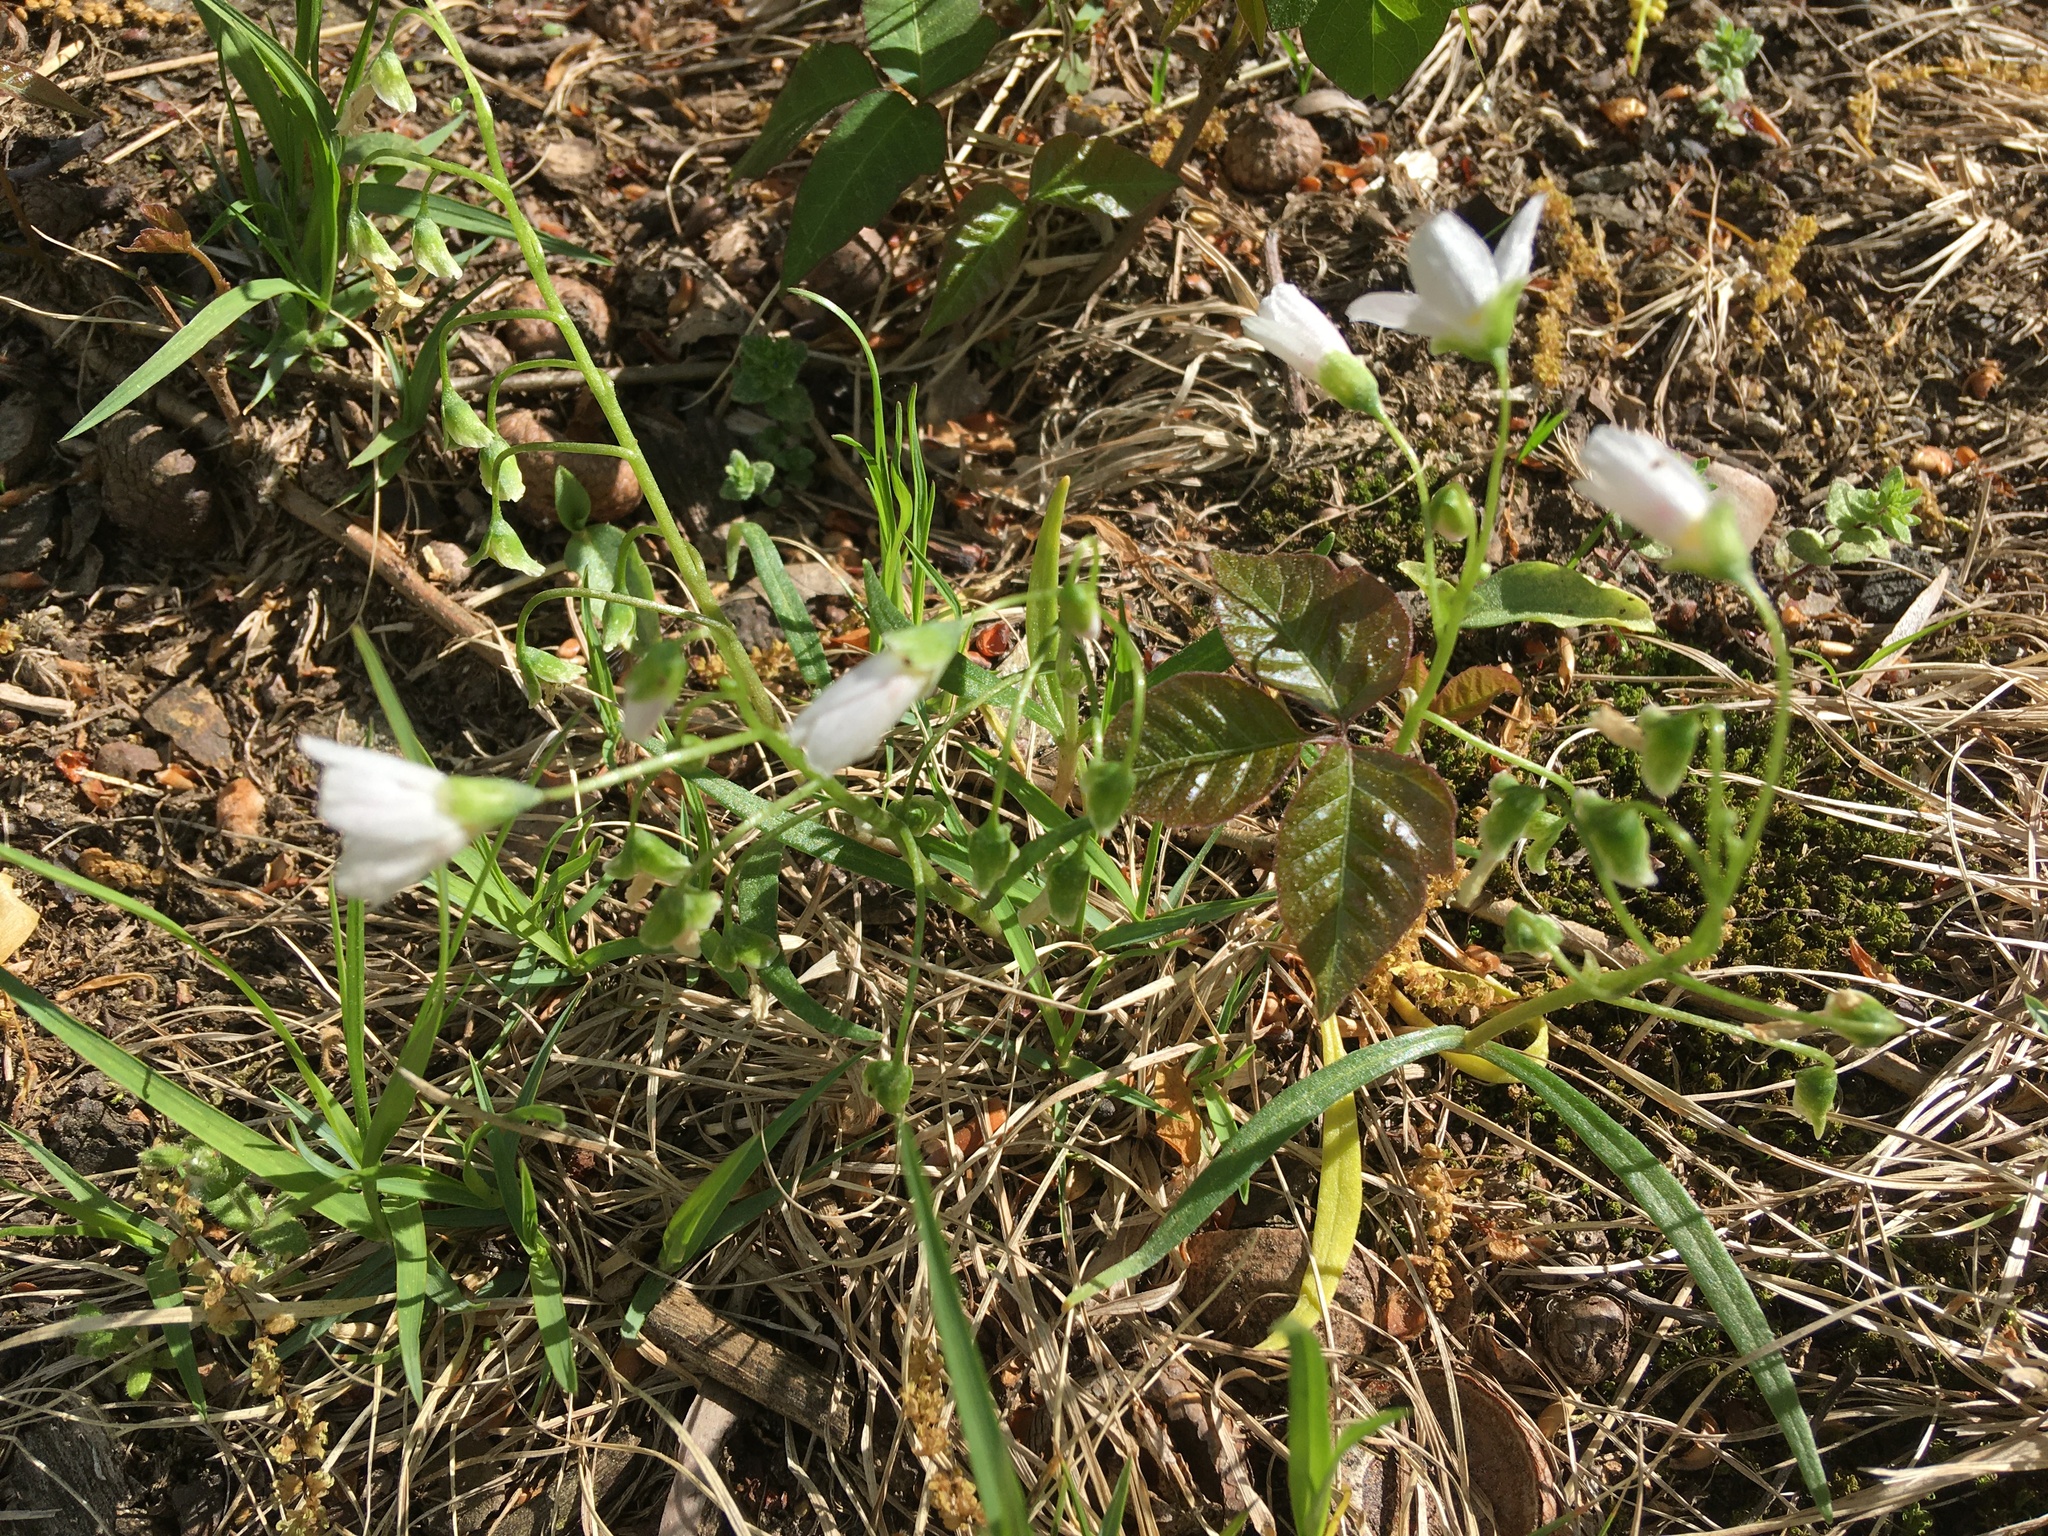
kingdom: Plantae
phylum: Tracheophyta
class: Magnoliopsida
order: Caryophyllales
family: Montiaceae
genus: Claytonia
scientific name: Claytonia virginica
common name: Virginia springbeauty
